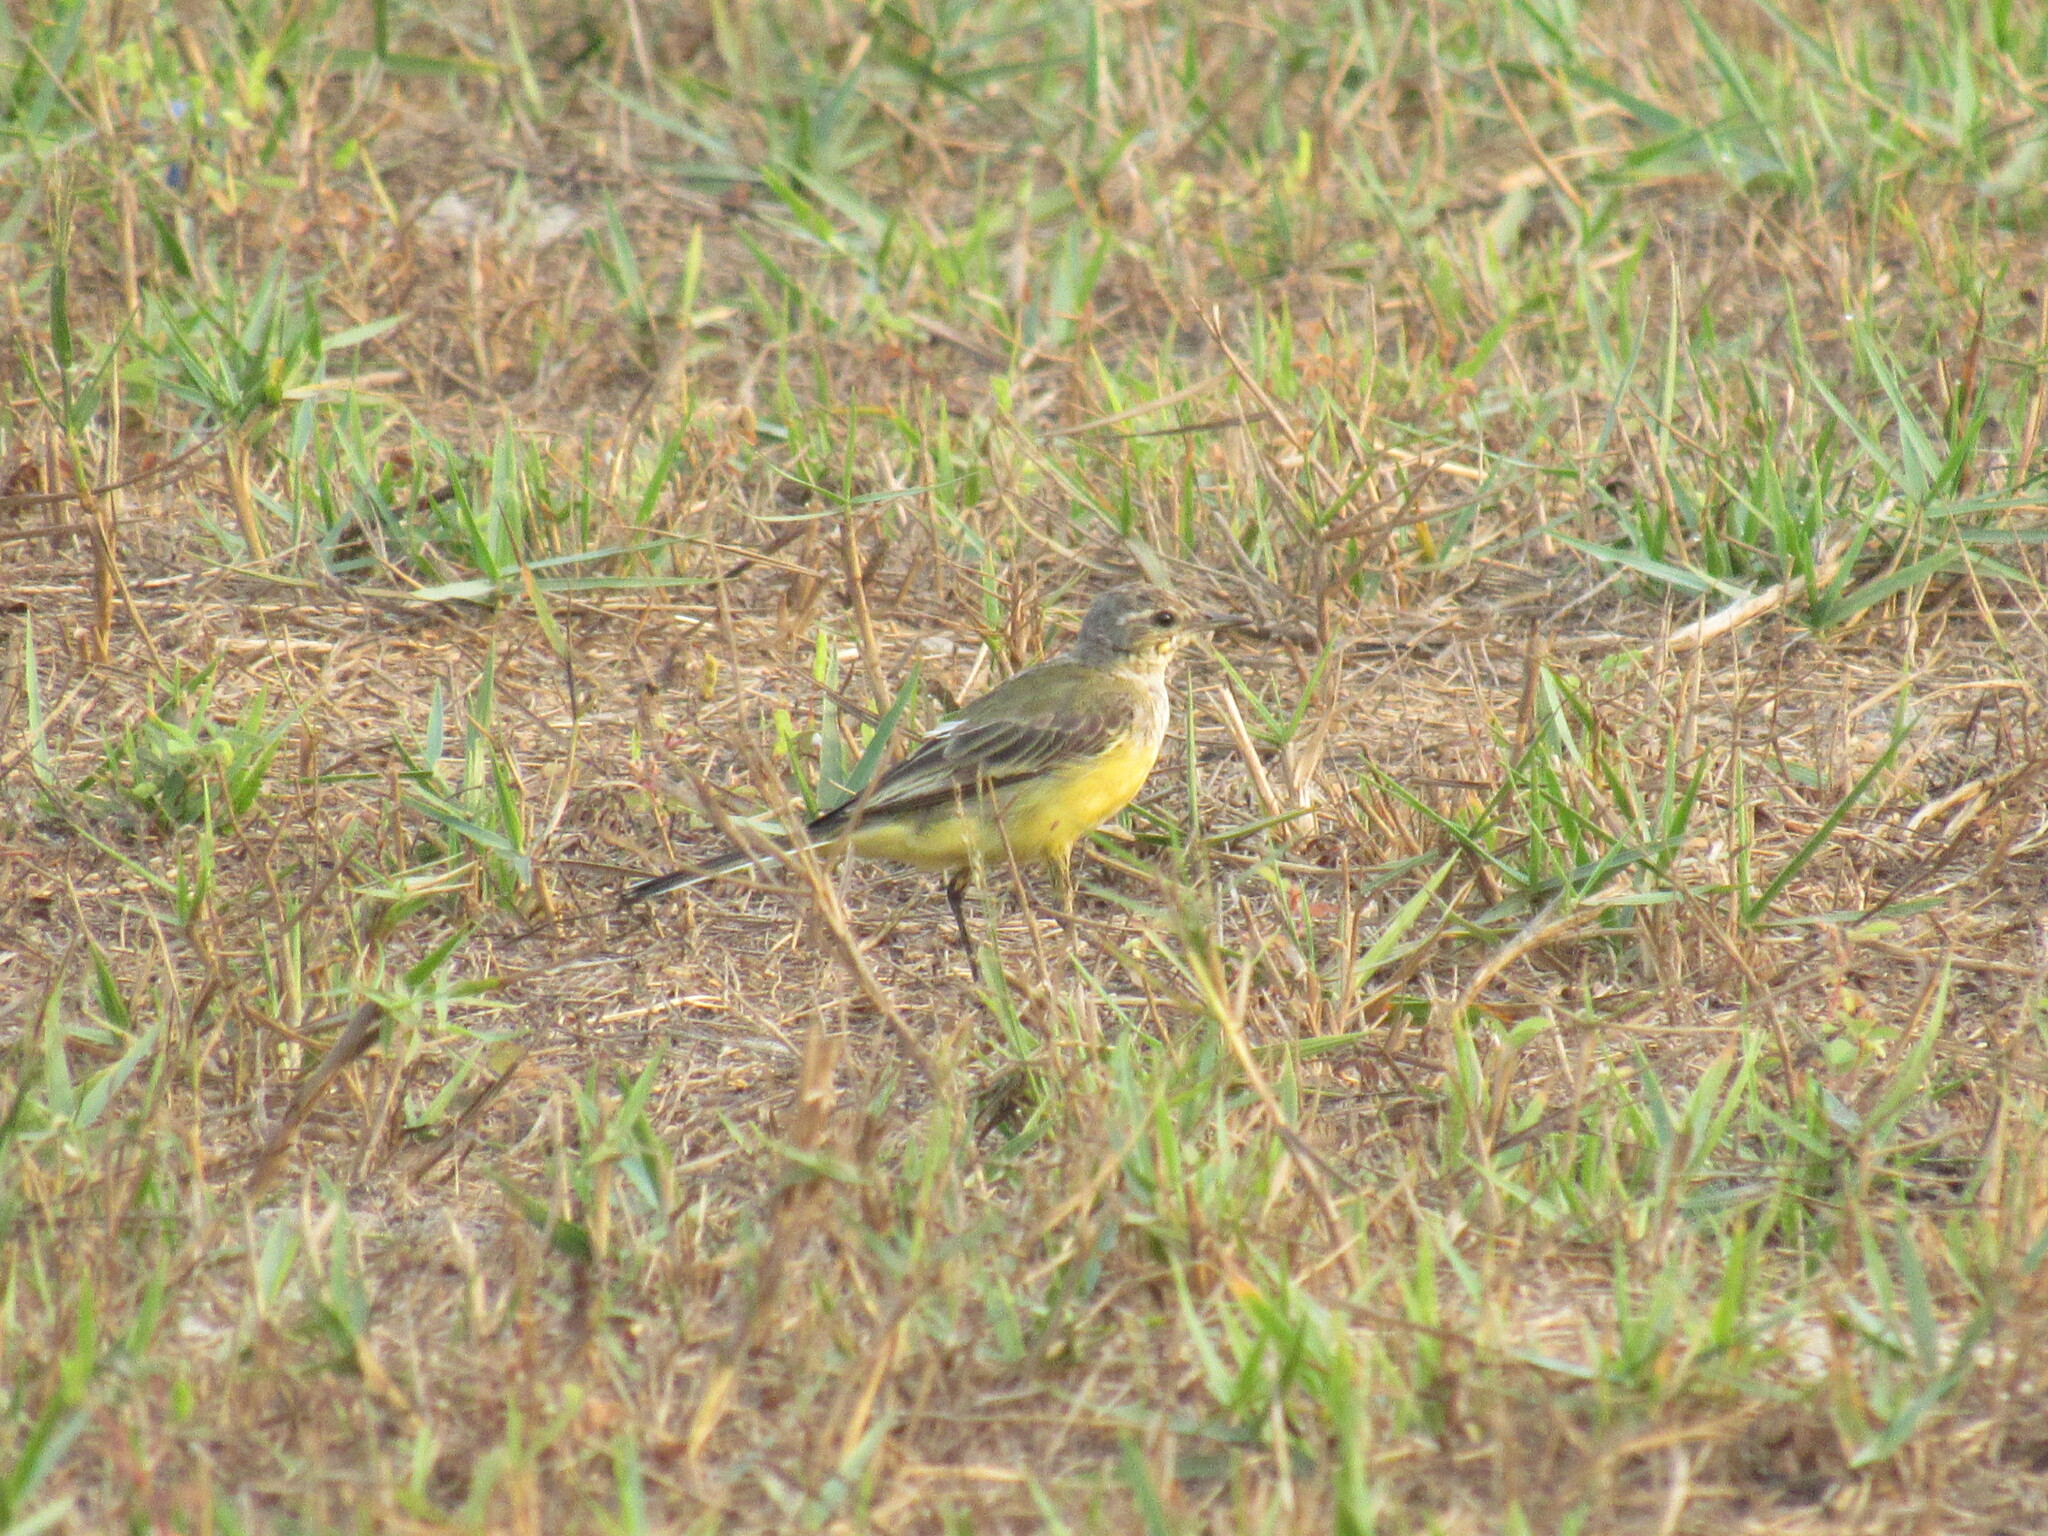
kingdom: Animalia
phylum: Chordata
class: Aves
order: Passeriformes
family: Motacillidae
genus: Motacilla
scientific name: Motacilla tschutschensis
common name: Eastern yellow wagtail
